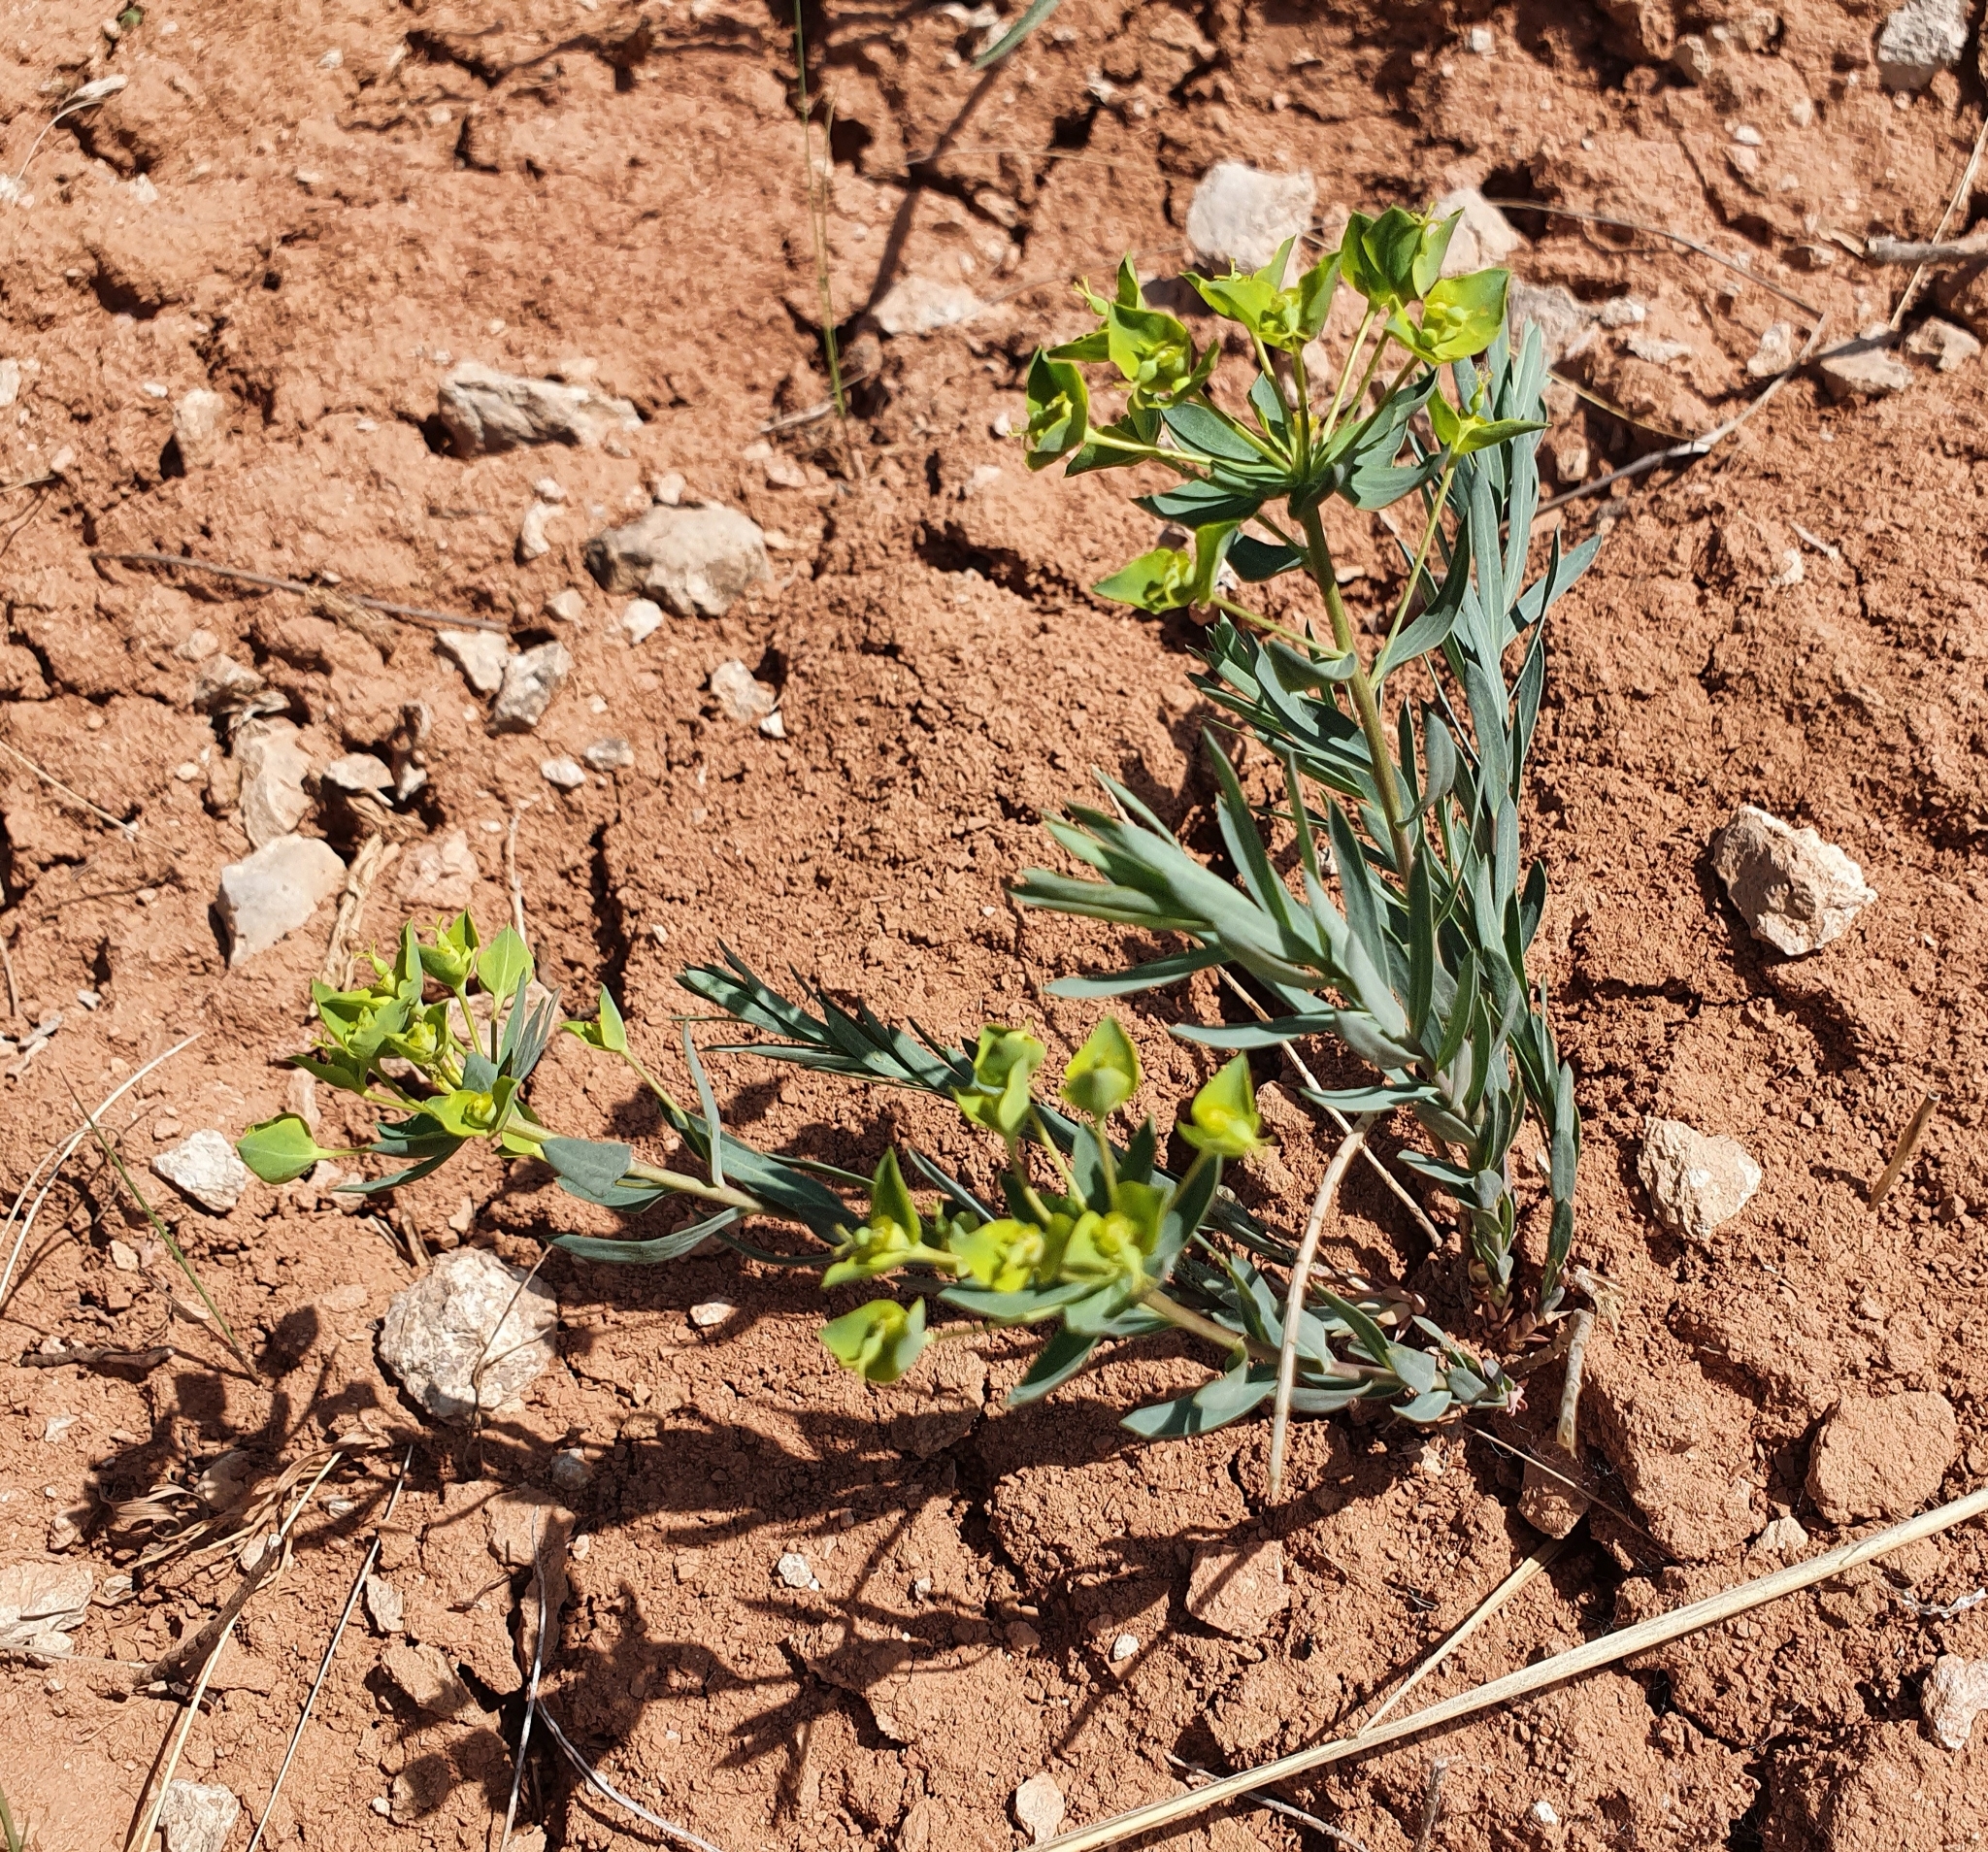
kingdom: Plantae
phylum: Tracheophyta
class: Magnoliopsida
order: Malpighiales
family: Euphorbiaceae
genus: Euphorbia
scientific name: Euphorbia seguieriana
